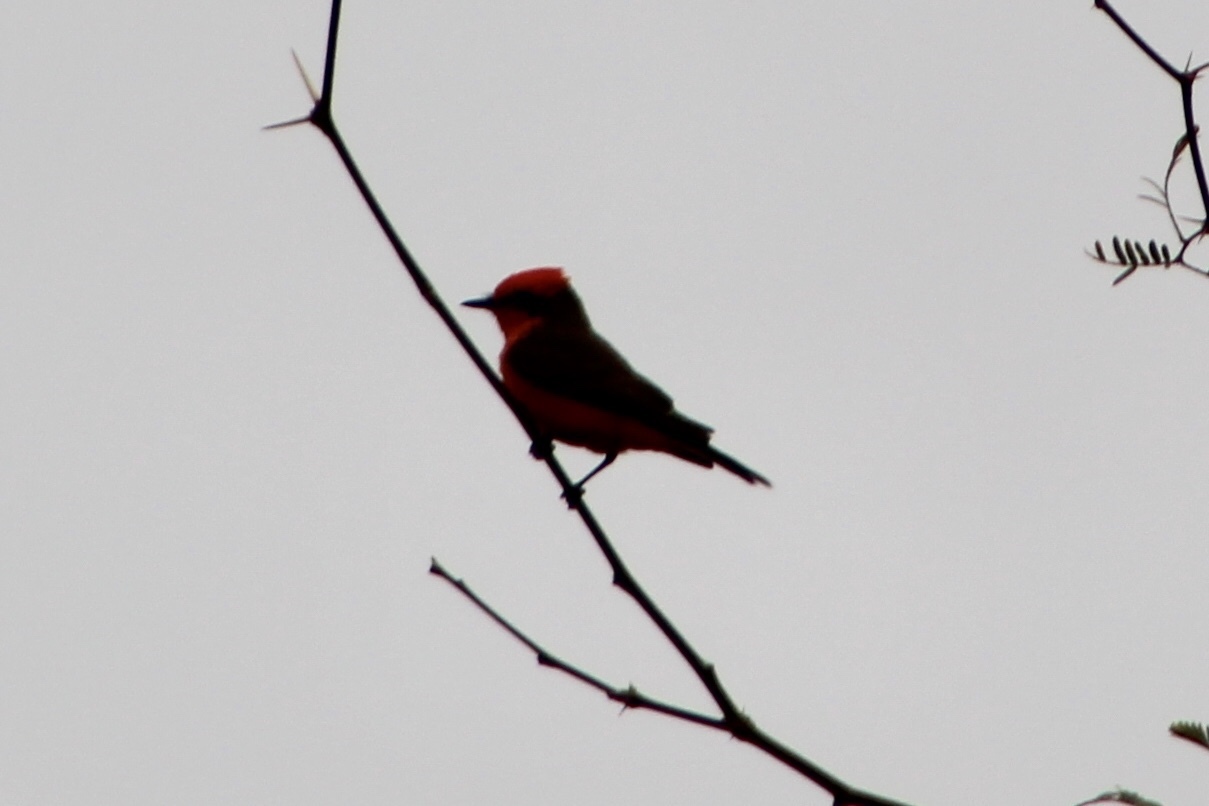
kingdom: Animalia
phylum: Chordata
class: Aves
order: Passeriformes
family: Tyrannidae
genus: Pyrocephalus
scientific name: Pyrocephalus rubinus
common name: Vermilion flycatcher
